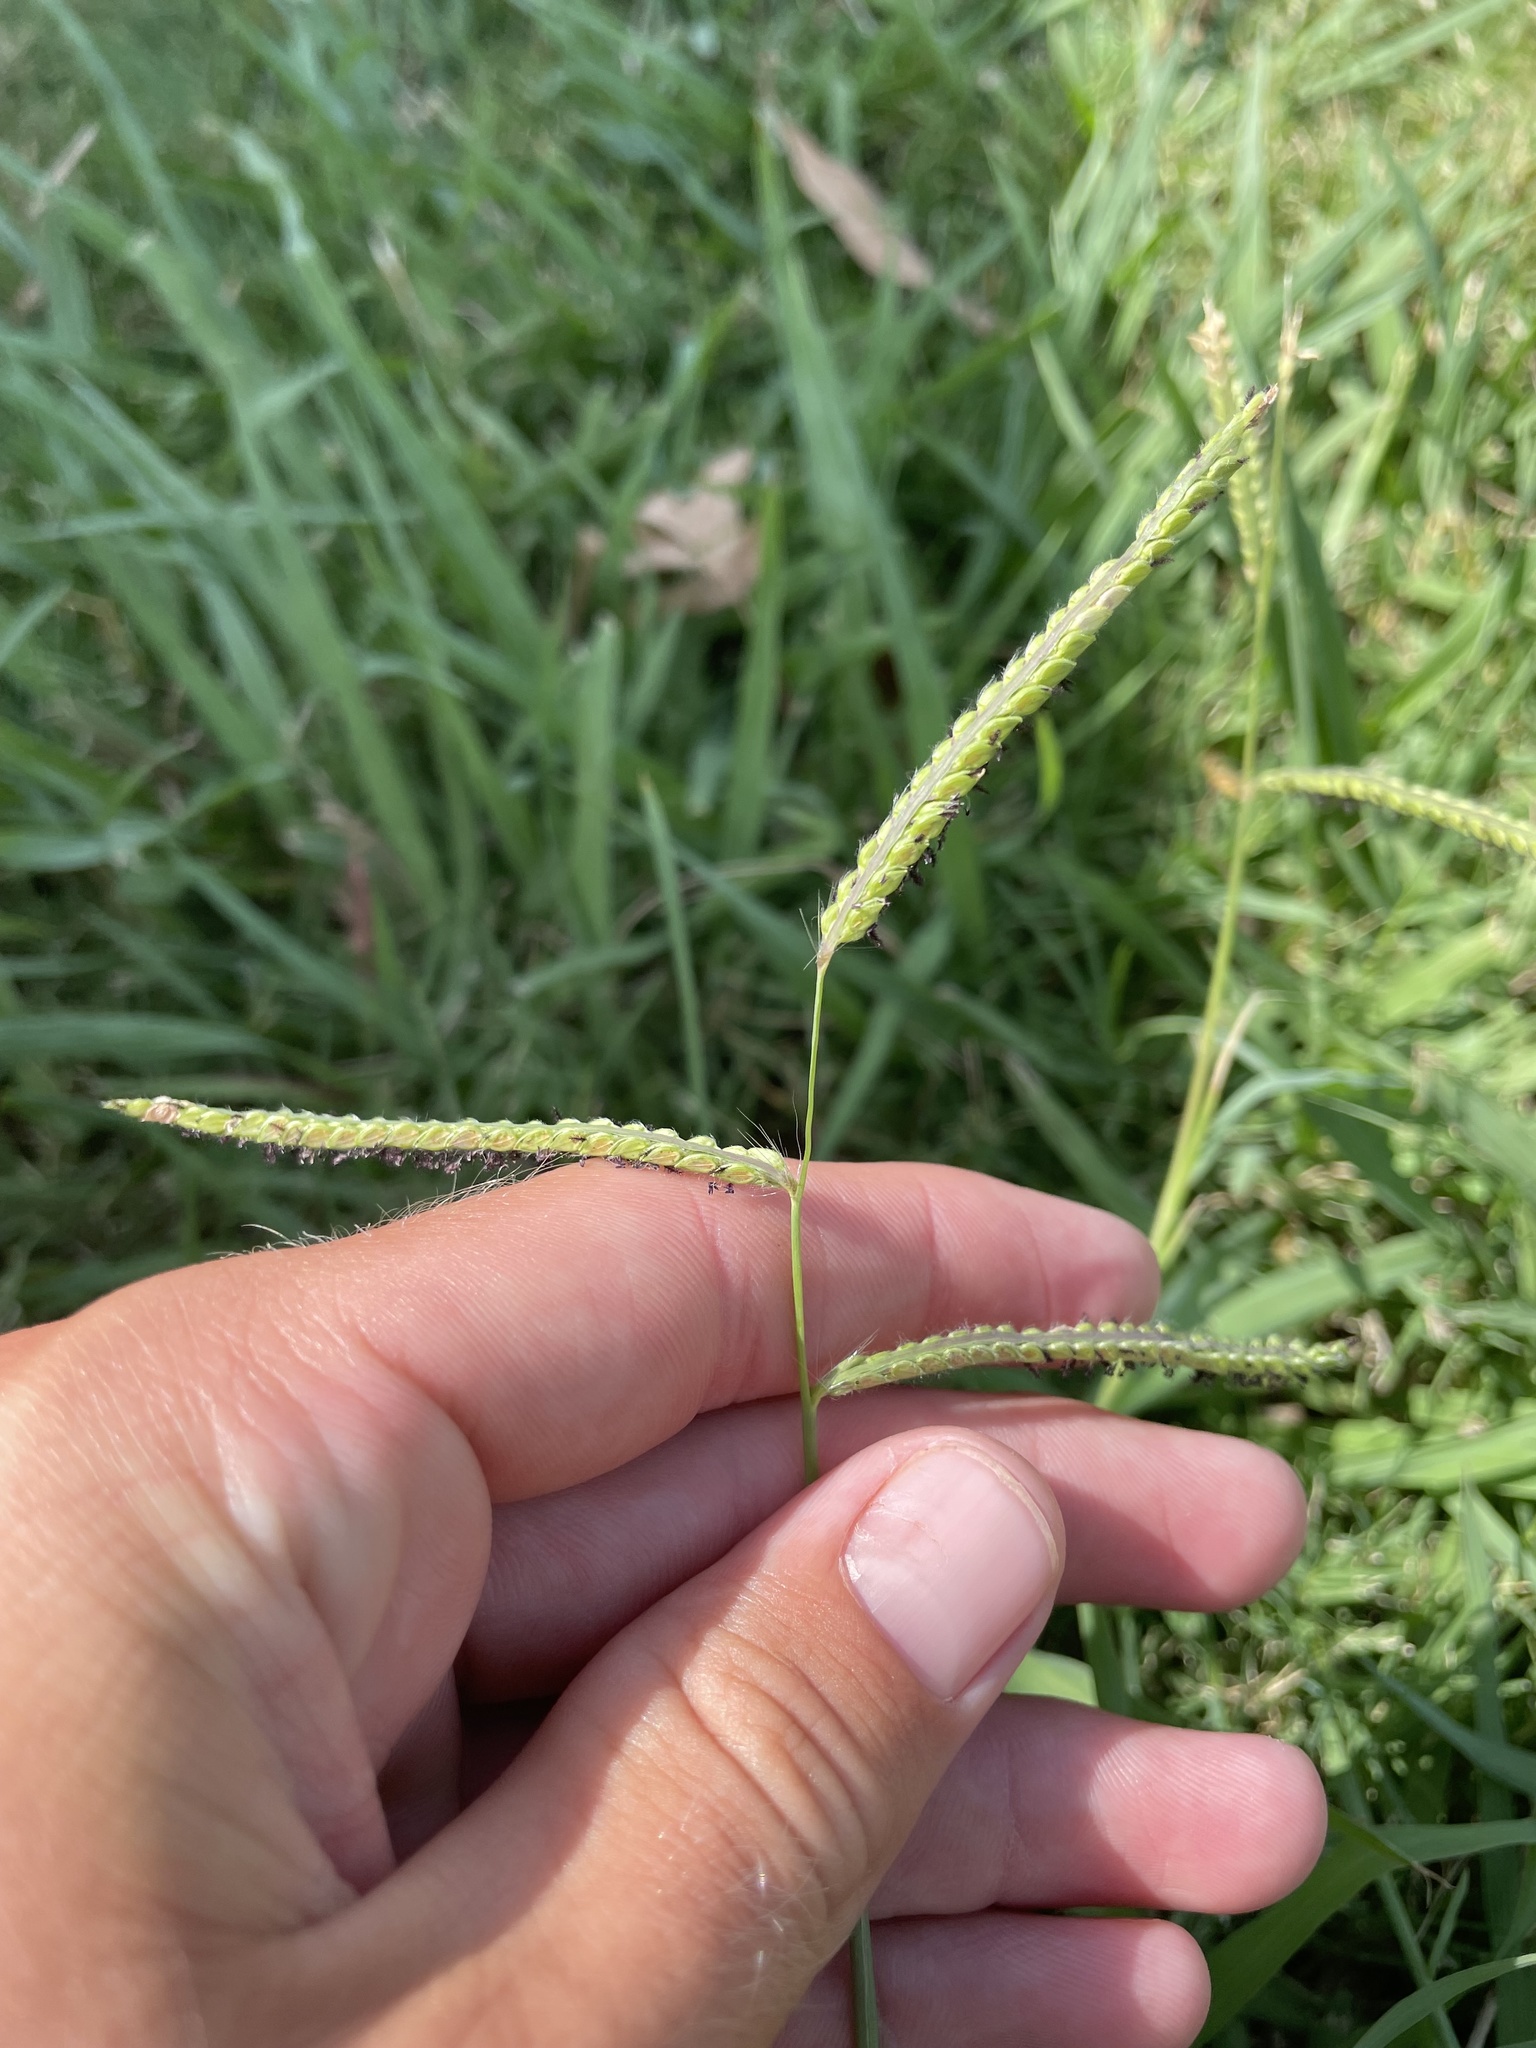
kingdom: Plantae
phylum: Tracheophyta
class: Liliopsida
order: Poales
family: Poaceae
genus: Paspalum
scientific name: Paspalum dilatatum
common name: Dallisgrass
